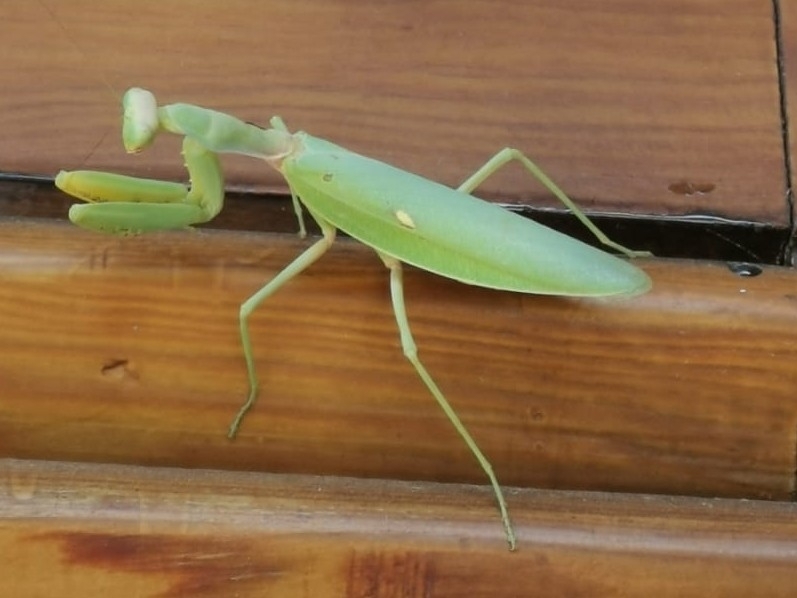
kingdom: Animalia
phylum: Arthropoda
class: Insecta
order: Mantodea
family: Mantidae
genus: Hierodula
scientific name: Hierodula transcaucasica
